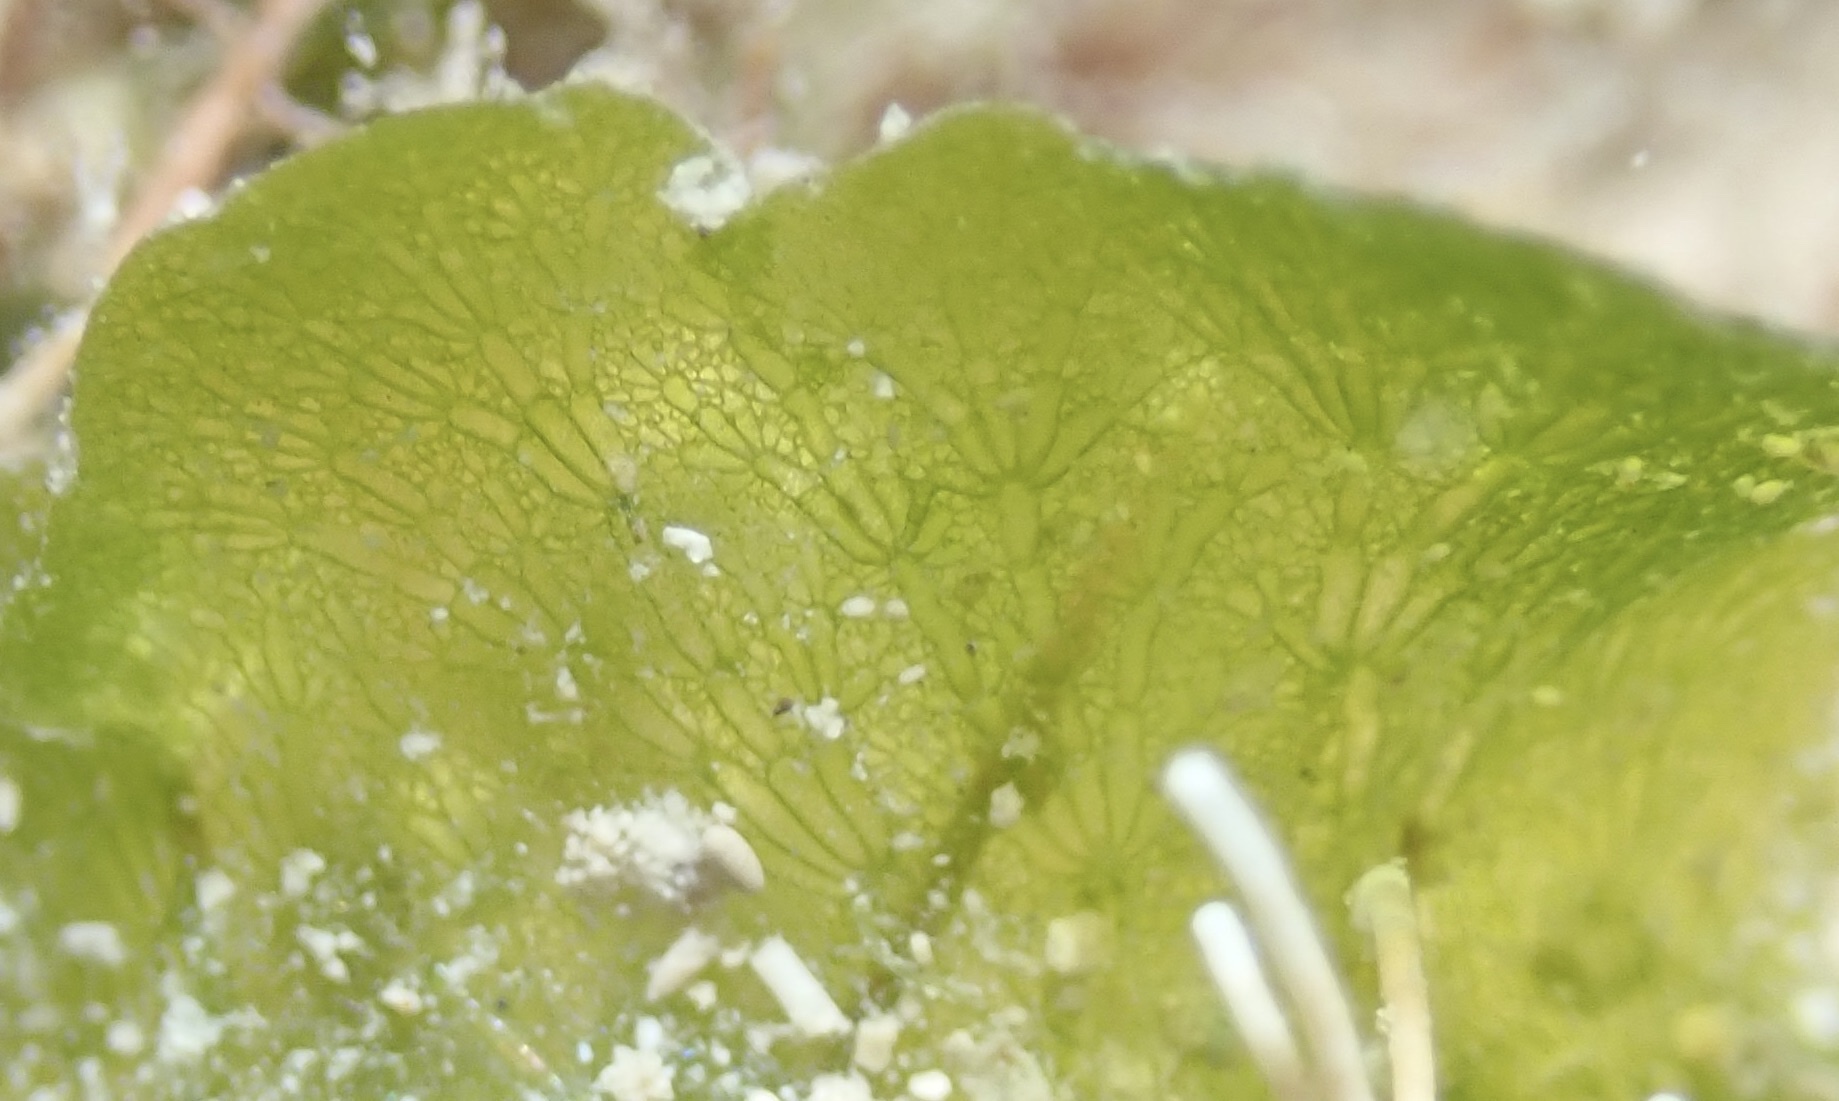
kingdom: Plantae
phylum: Chlorophyta
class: Ulvophyceae
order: Cladophorales
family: Anadyomenaceae
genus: Anadyomene
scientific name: Anadyomene stellata
